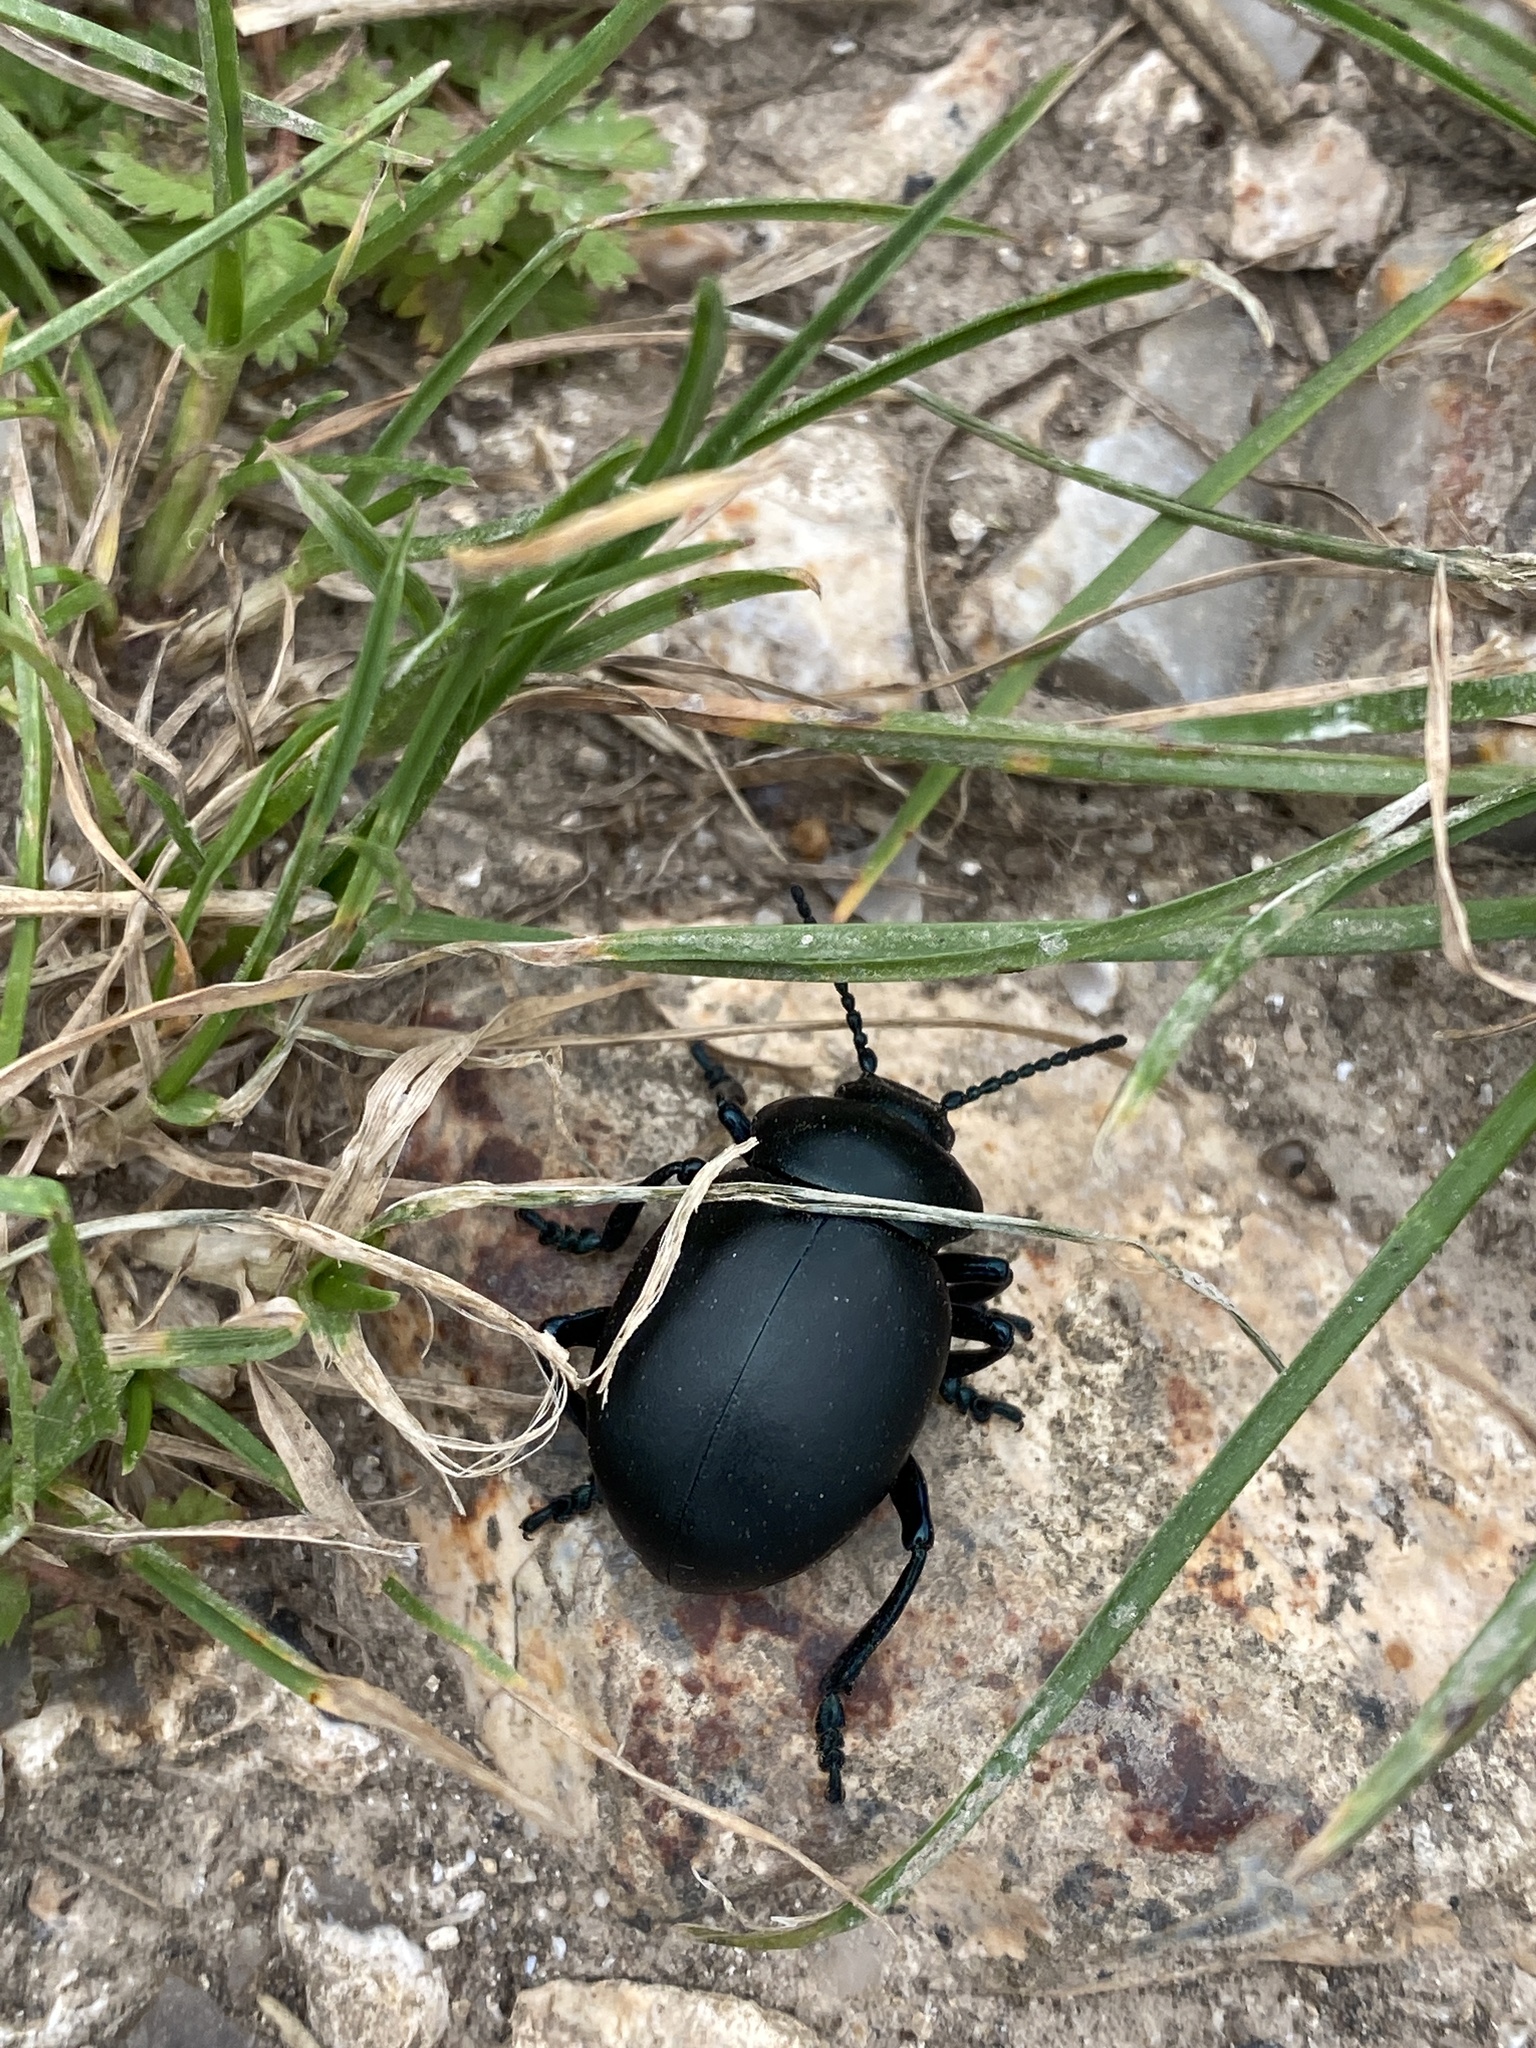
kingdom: Animalia
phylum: Arthropoda
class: Insecta
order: Coleoptera
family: Chrysomelidae
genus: Timarcha
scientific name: Timarcha tenebricosa
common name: Bloody-nosed beetle
